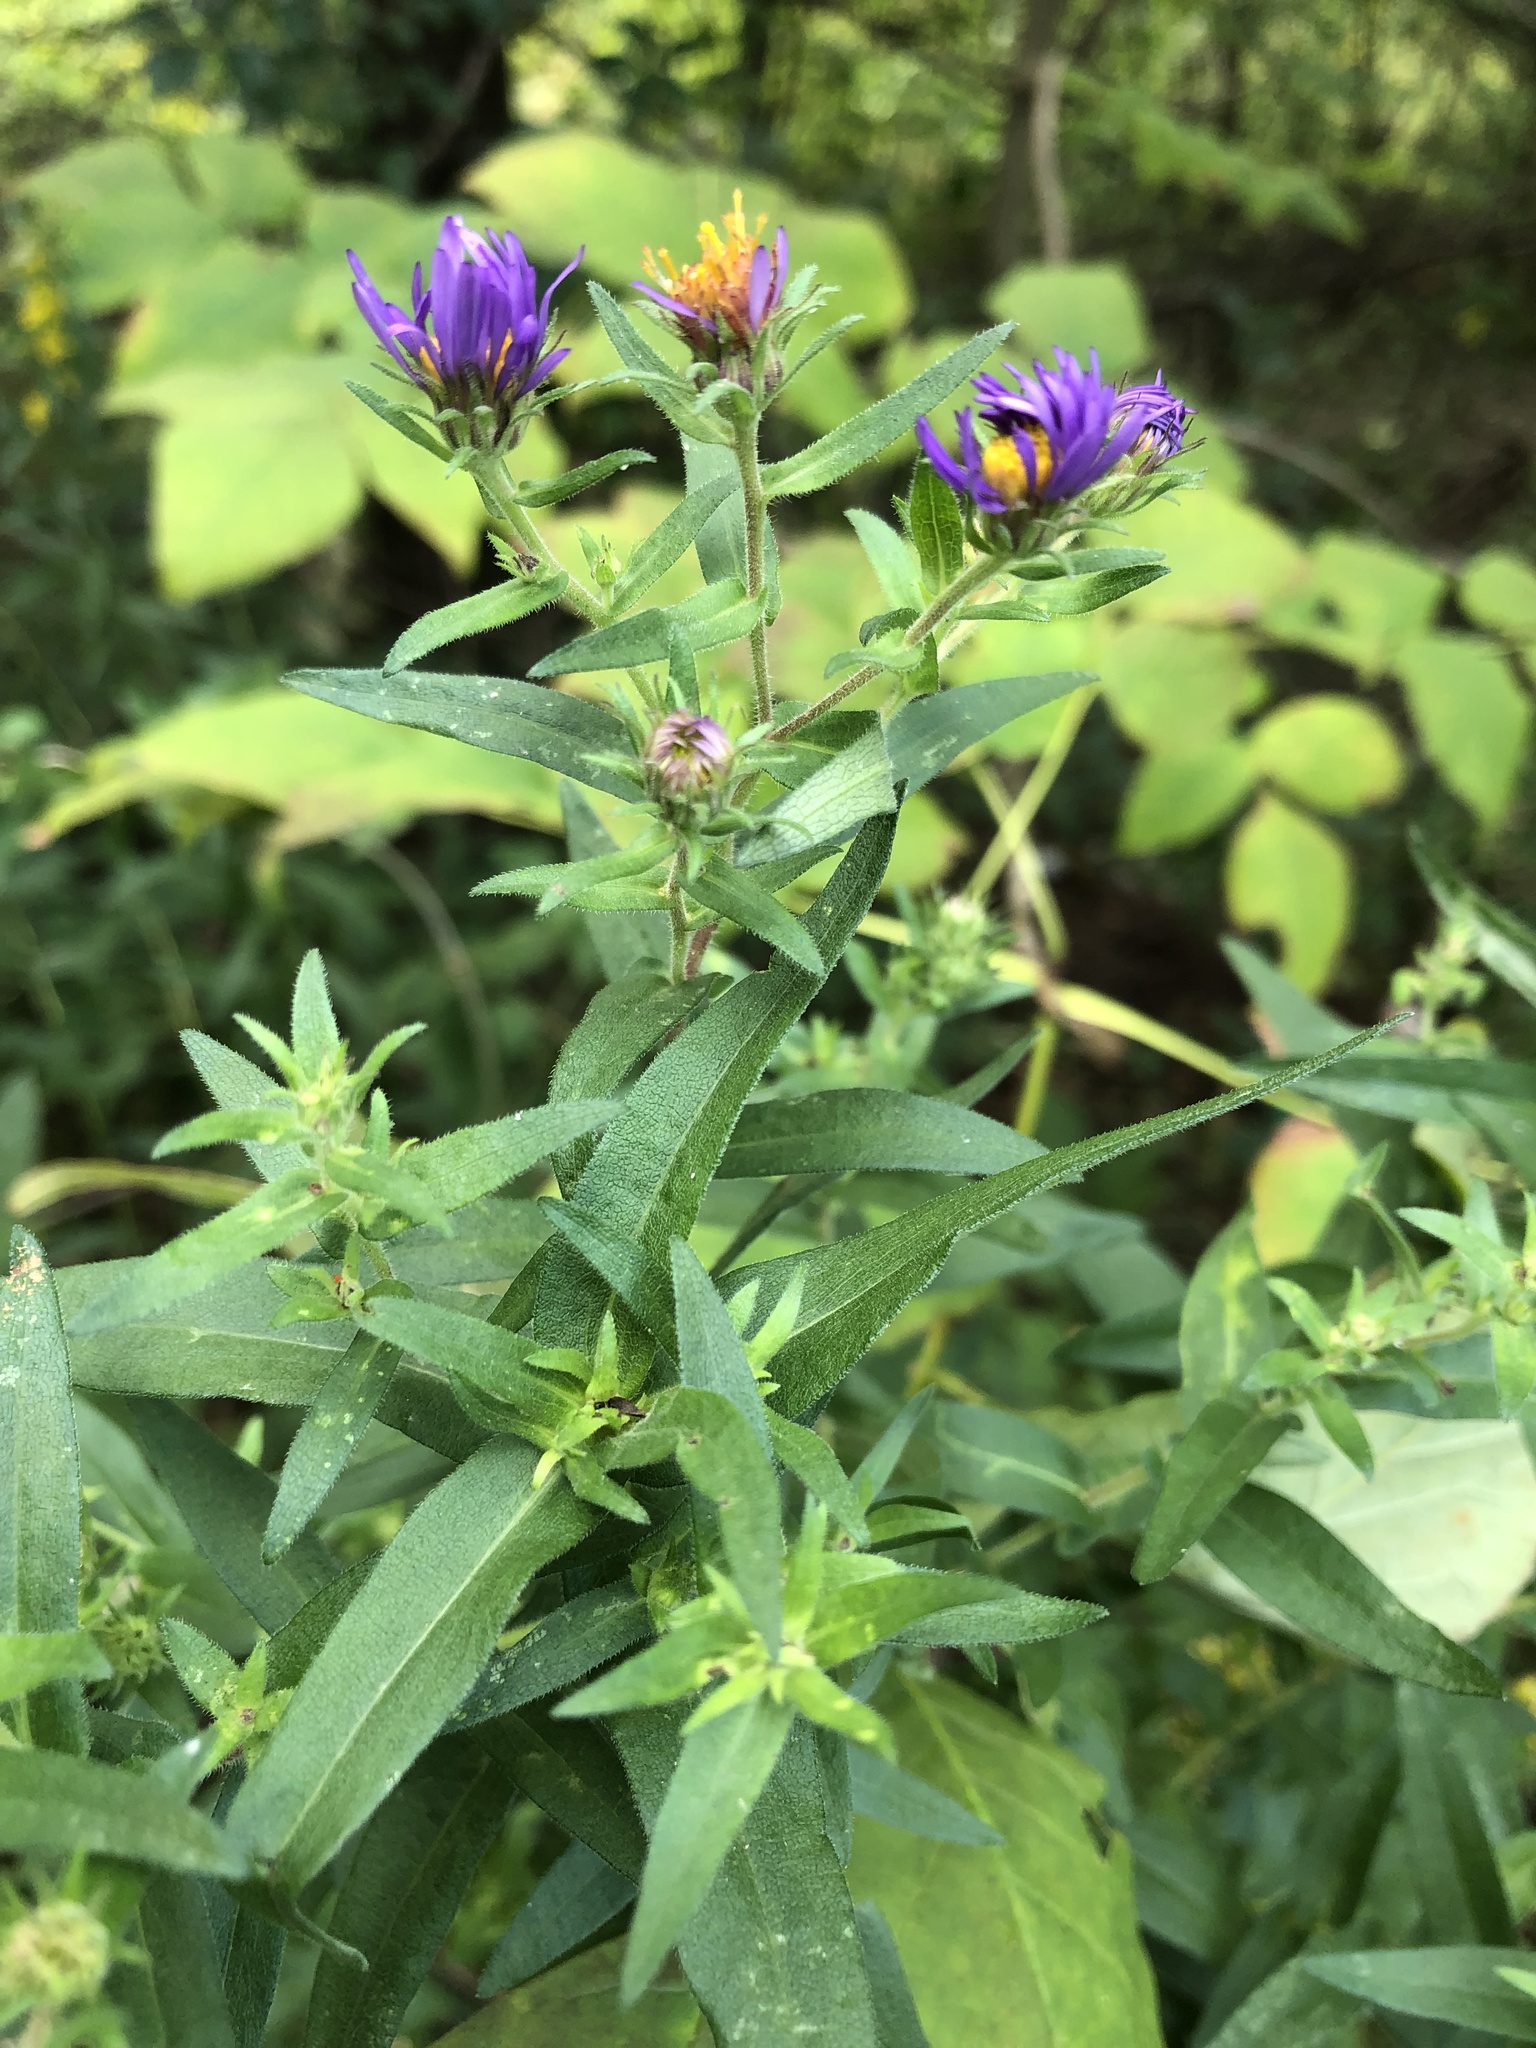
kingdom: Plantae
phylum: Tracheophyta
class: Magnoliopsida
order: Asterales
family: Asteraceae
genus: Symphyotrichum
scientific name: Symphyotrichum novae-angliae
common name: Michaelmas daisy
